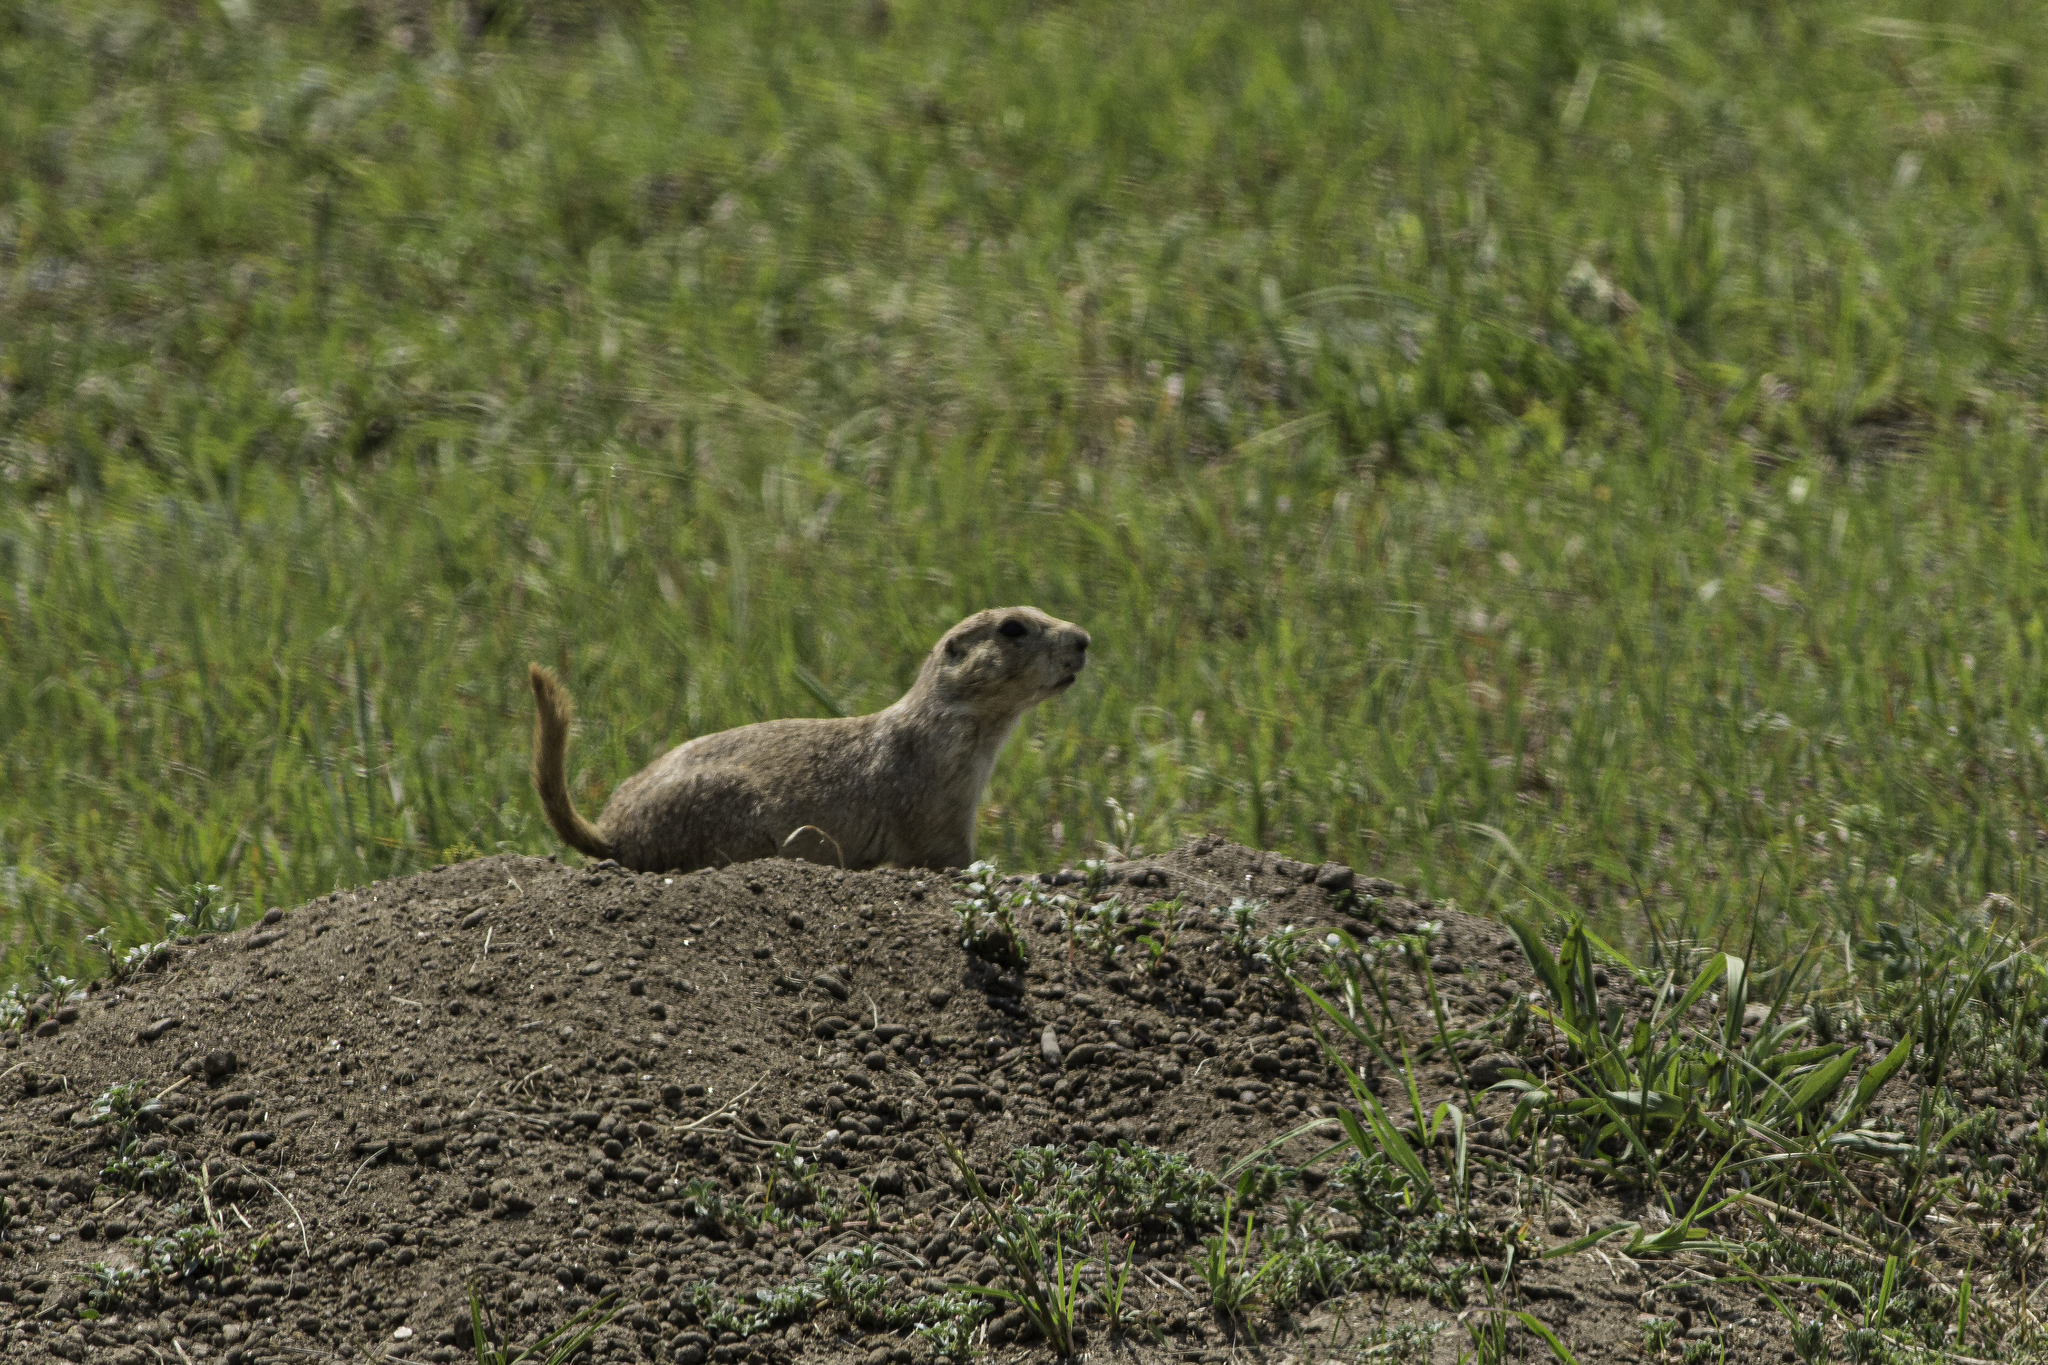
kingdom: Animalia
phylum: Chordata
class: Mammalia
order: Rodentia
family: Sciuridae
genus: Cynomys
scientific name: Cynomys ludovicianus
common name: Black-tailed prairie dog
